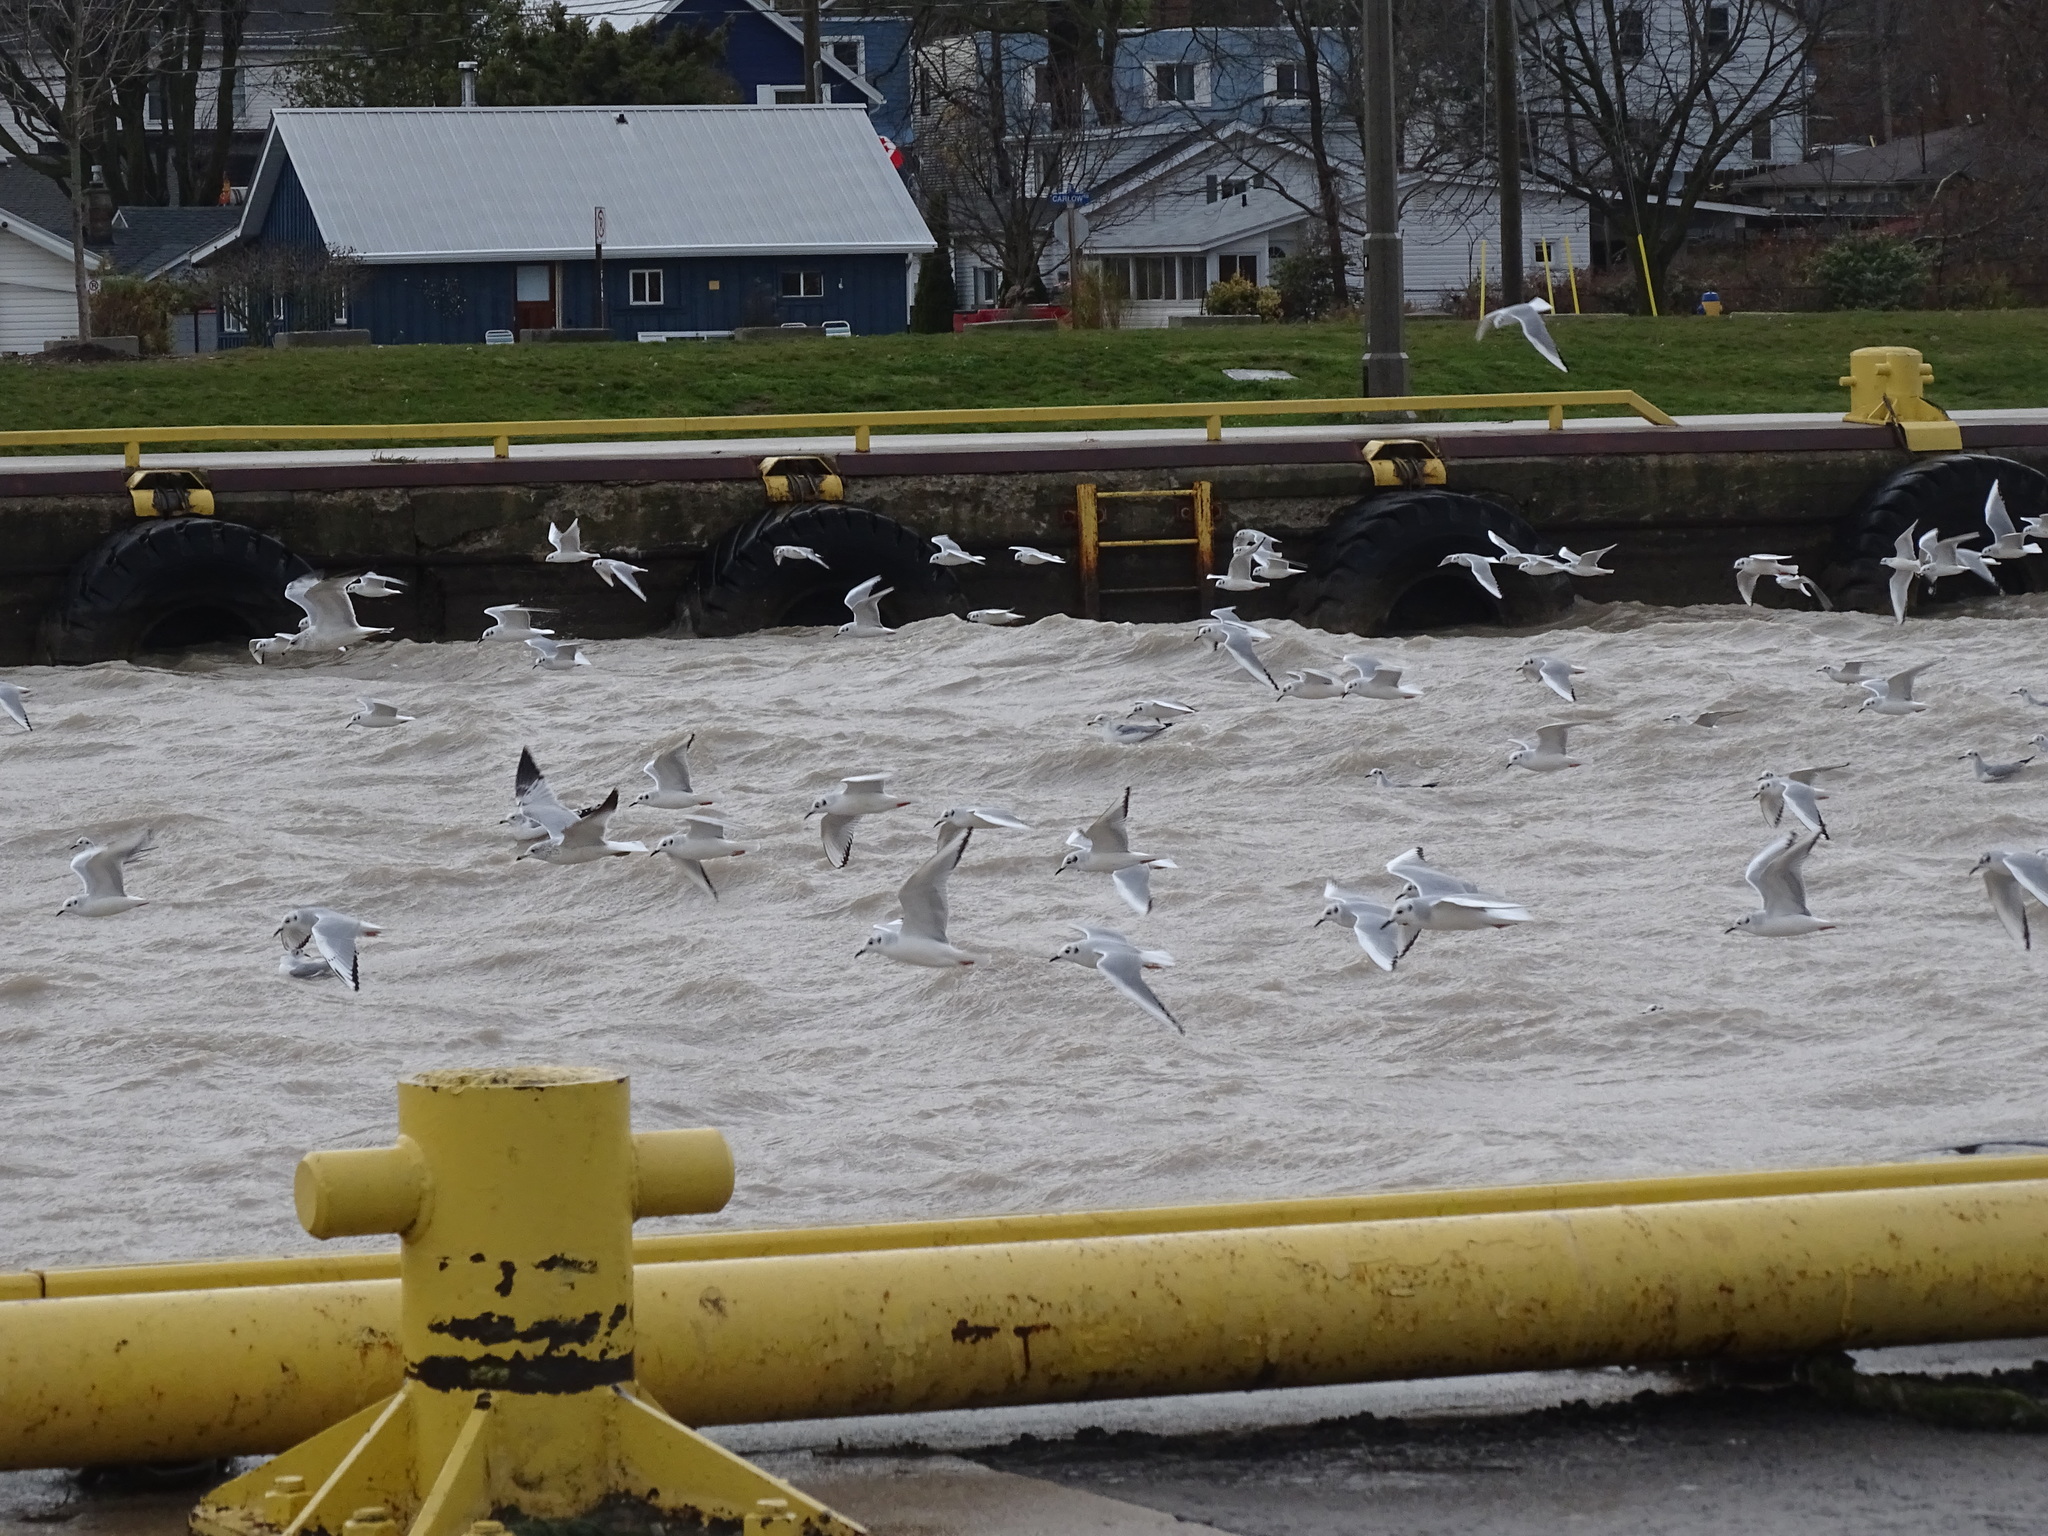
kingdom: Animalia
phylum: Chordata
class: Aves
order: Charadriiformes
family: Laridae
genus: Chroicocephalus
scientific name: Chroicocephalus philadelphia
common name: Bonaparte's gull
